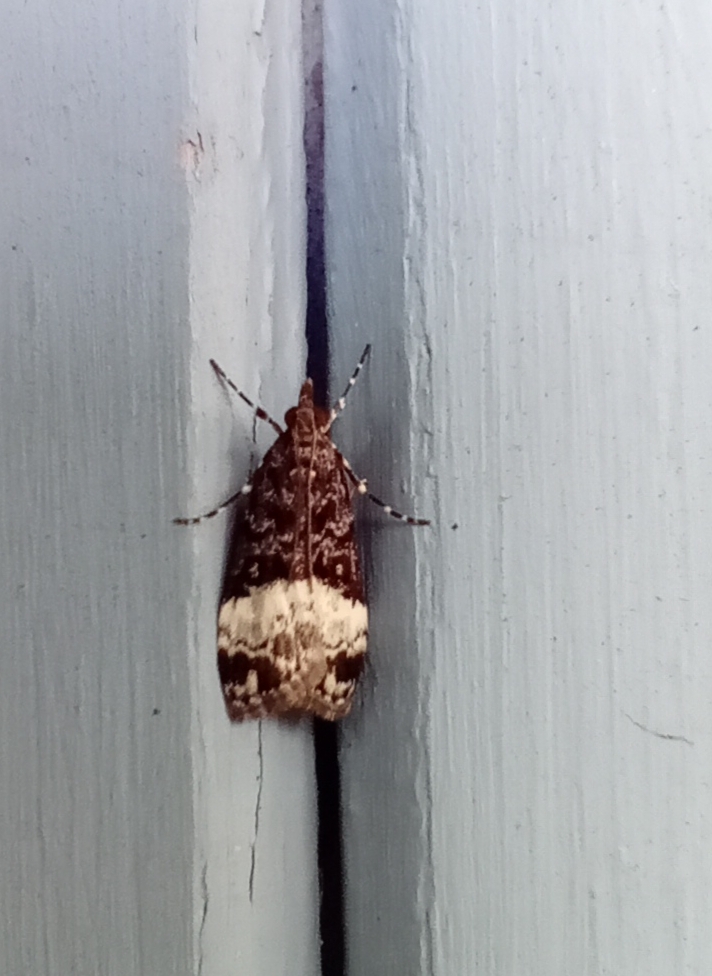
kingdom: Animalia
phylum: Arthropoda
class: Insecta
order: Lepidoptera
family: Crambidae
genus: Scoparia
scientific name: Scoparia minusculalis
